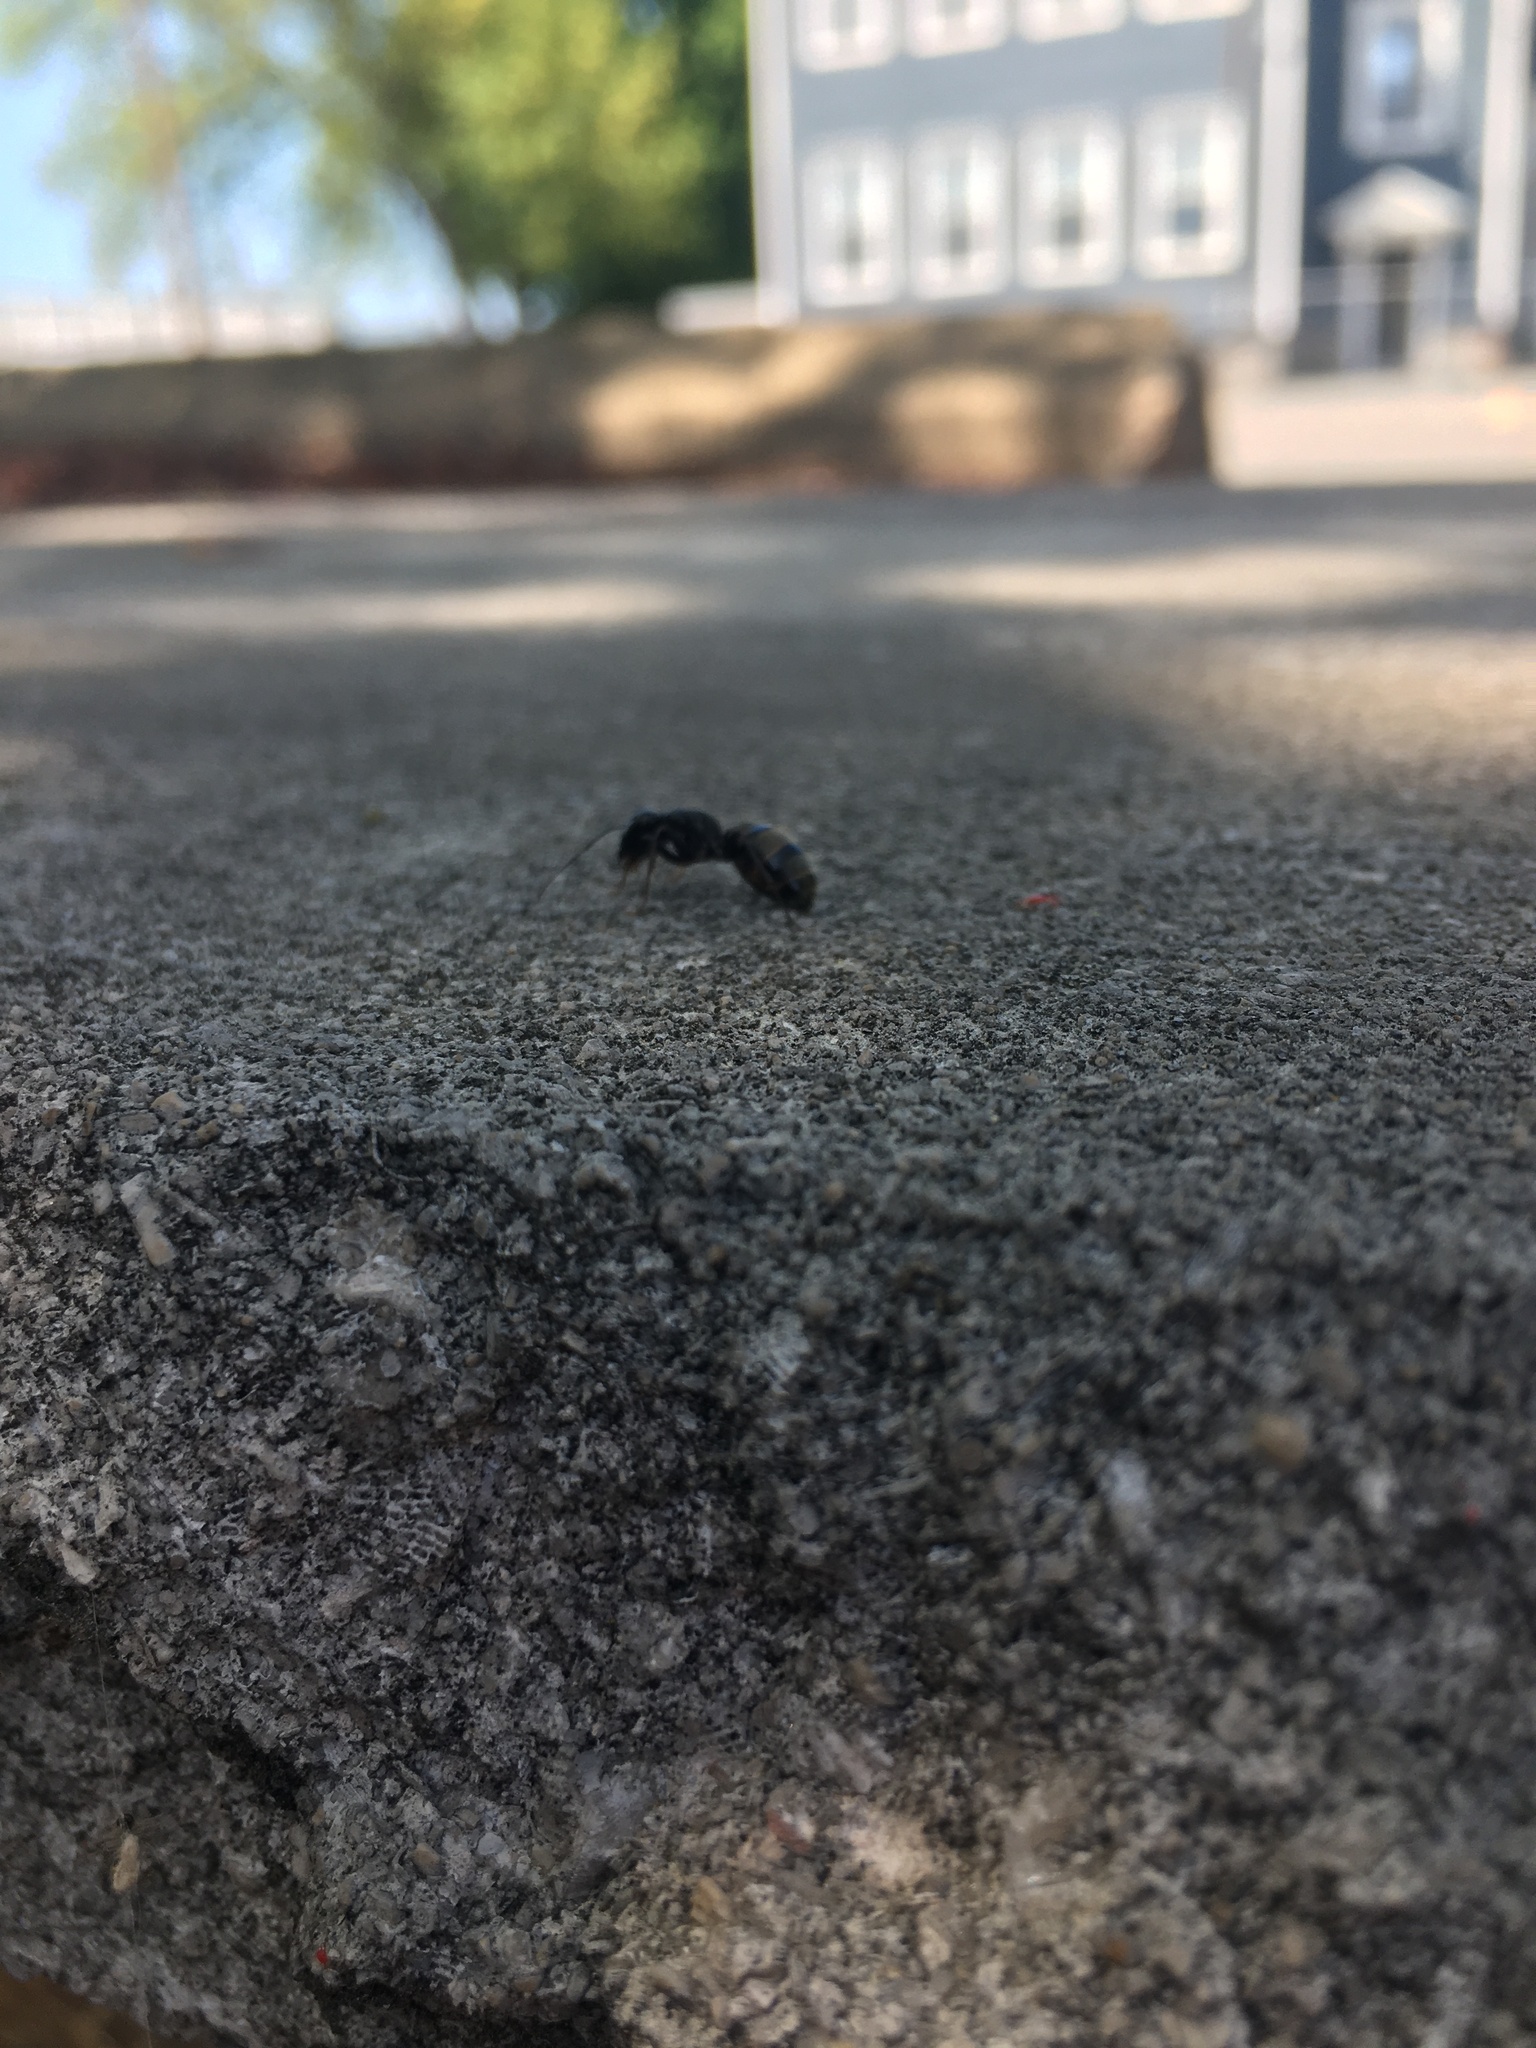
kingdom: Animalia
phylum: Arthropoda
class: Insecta
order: Hymenoptera
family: Formicidae
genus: Camponotus
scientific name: Camponotus pennsylvanicus
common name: Black carpenter ant
